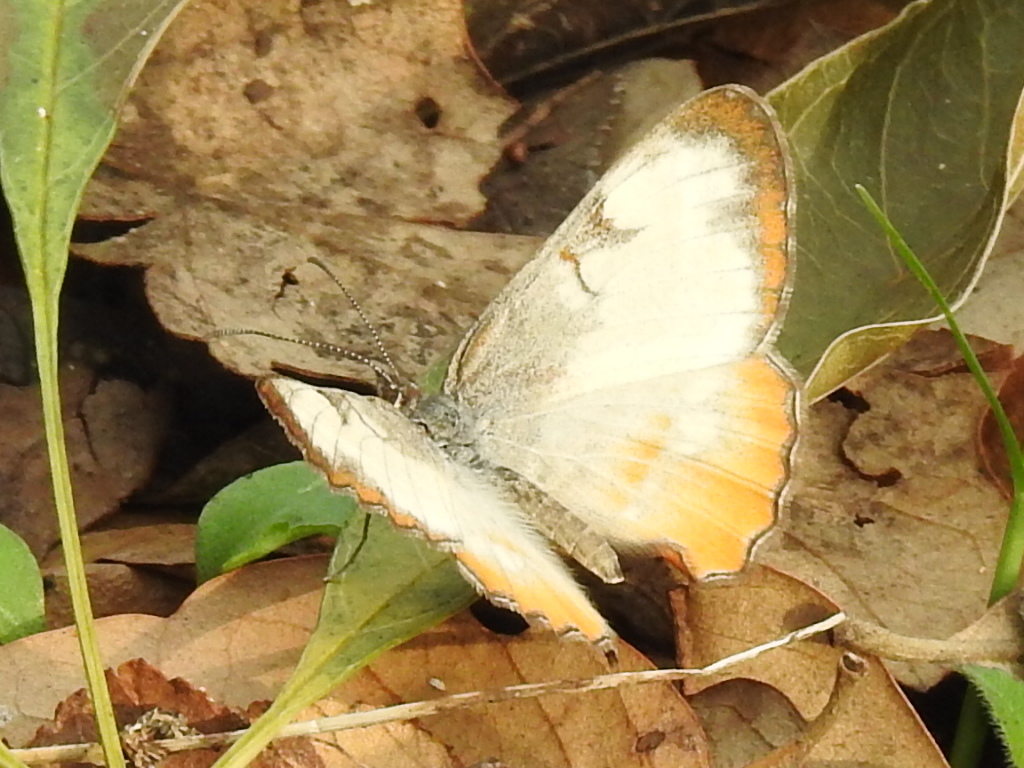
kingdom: Animalia
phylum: Arthropoda
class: Insecta
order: Lepidoptera
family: Nymphalidae
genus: Mestra
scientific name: Mestra amymone
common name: Common mestra
